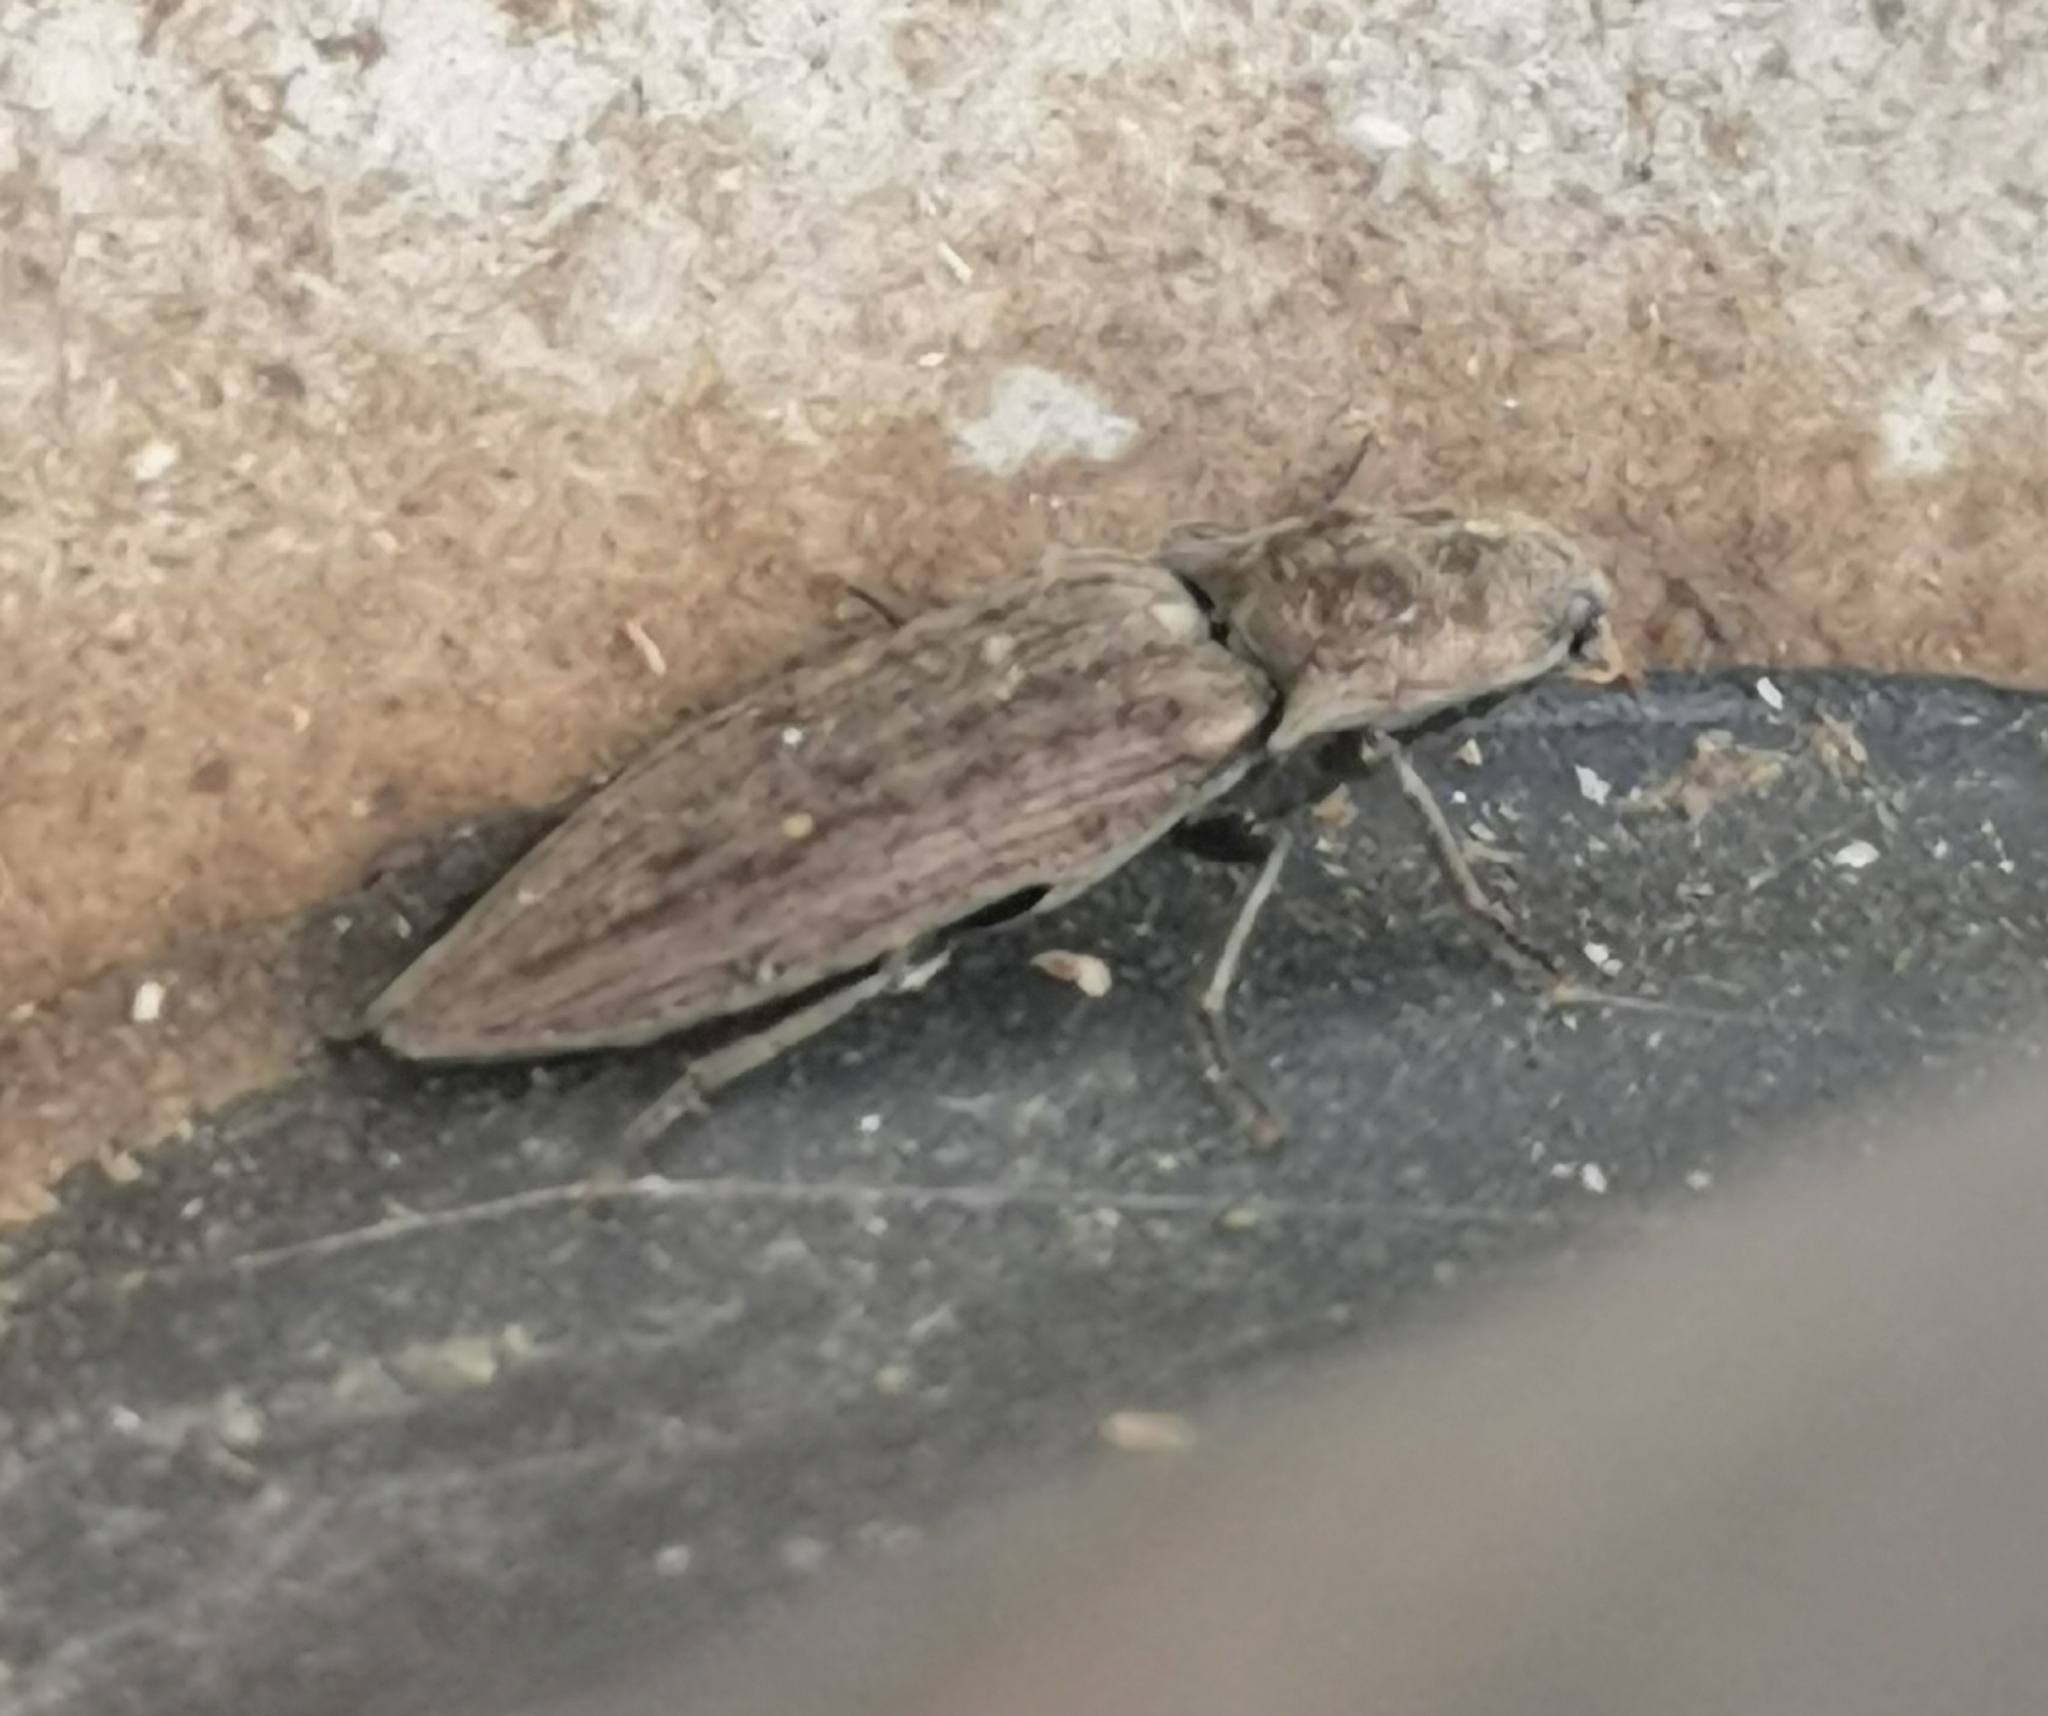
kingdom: Animalia
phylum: Arthropoda
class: Insecta
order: Coleoptera
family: Elateridae
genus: Actenicerus
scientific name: Actenicerus sjaelandicus
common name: Marsh click beetle
